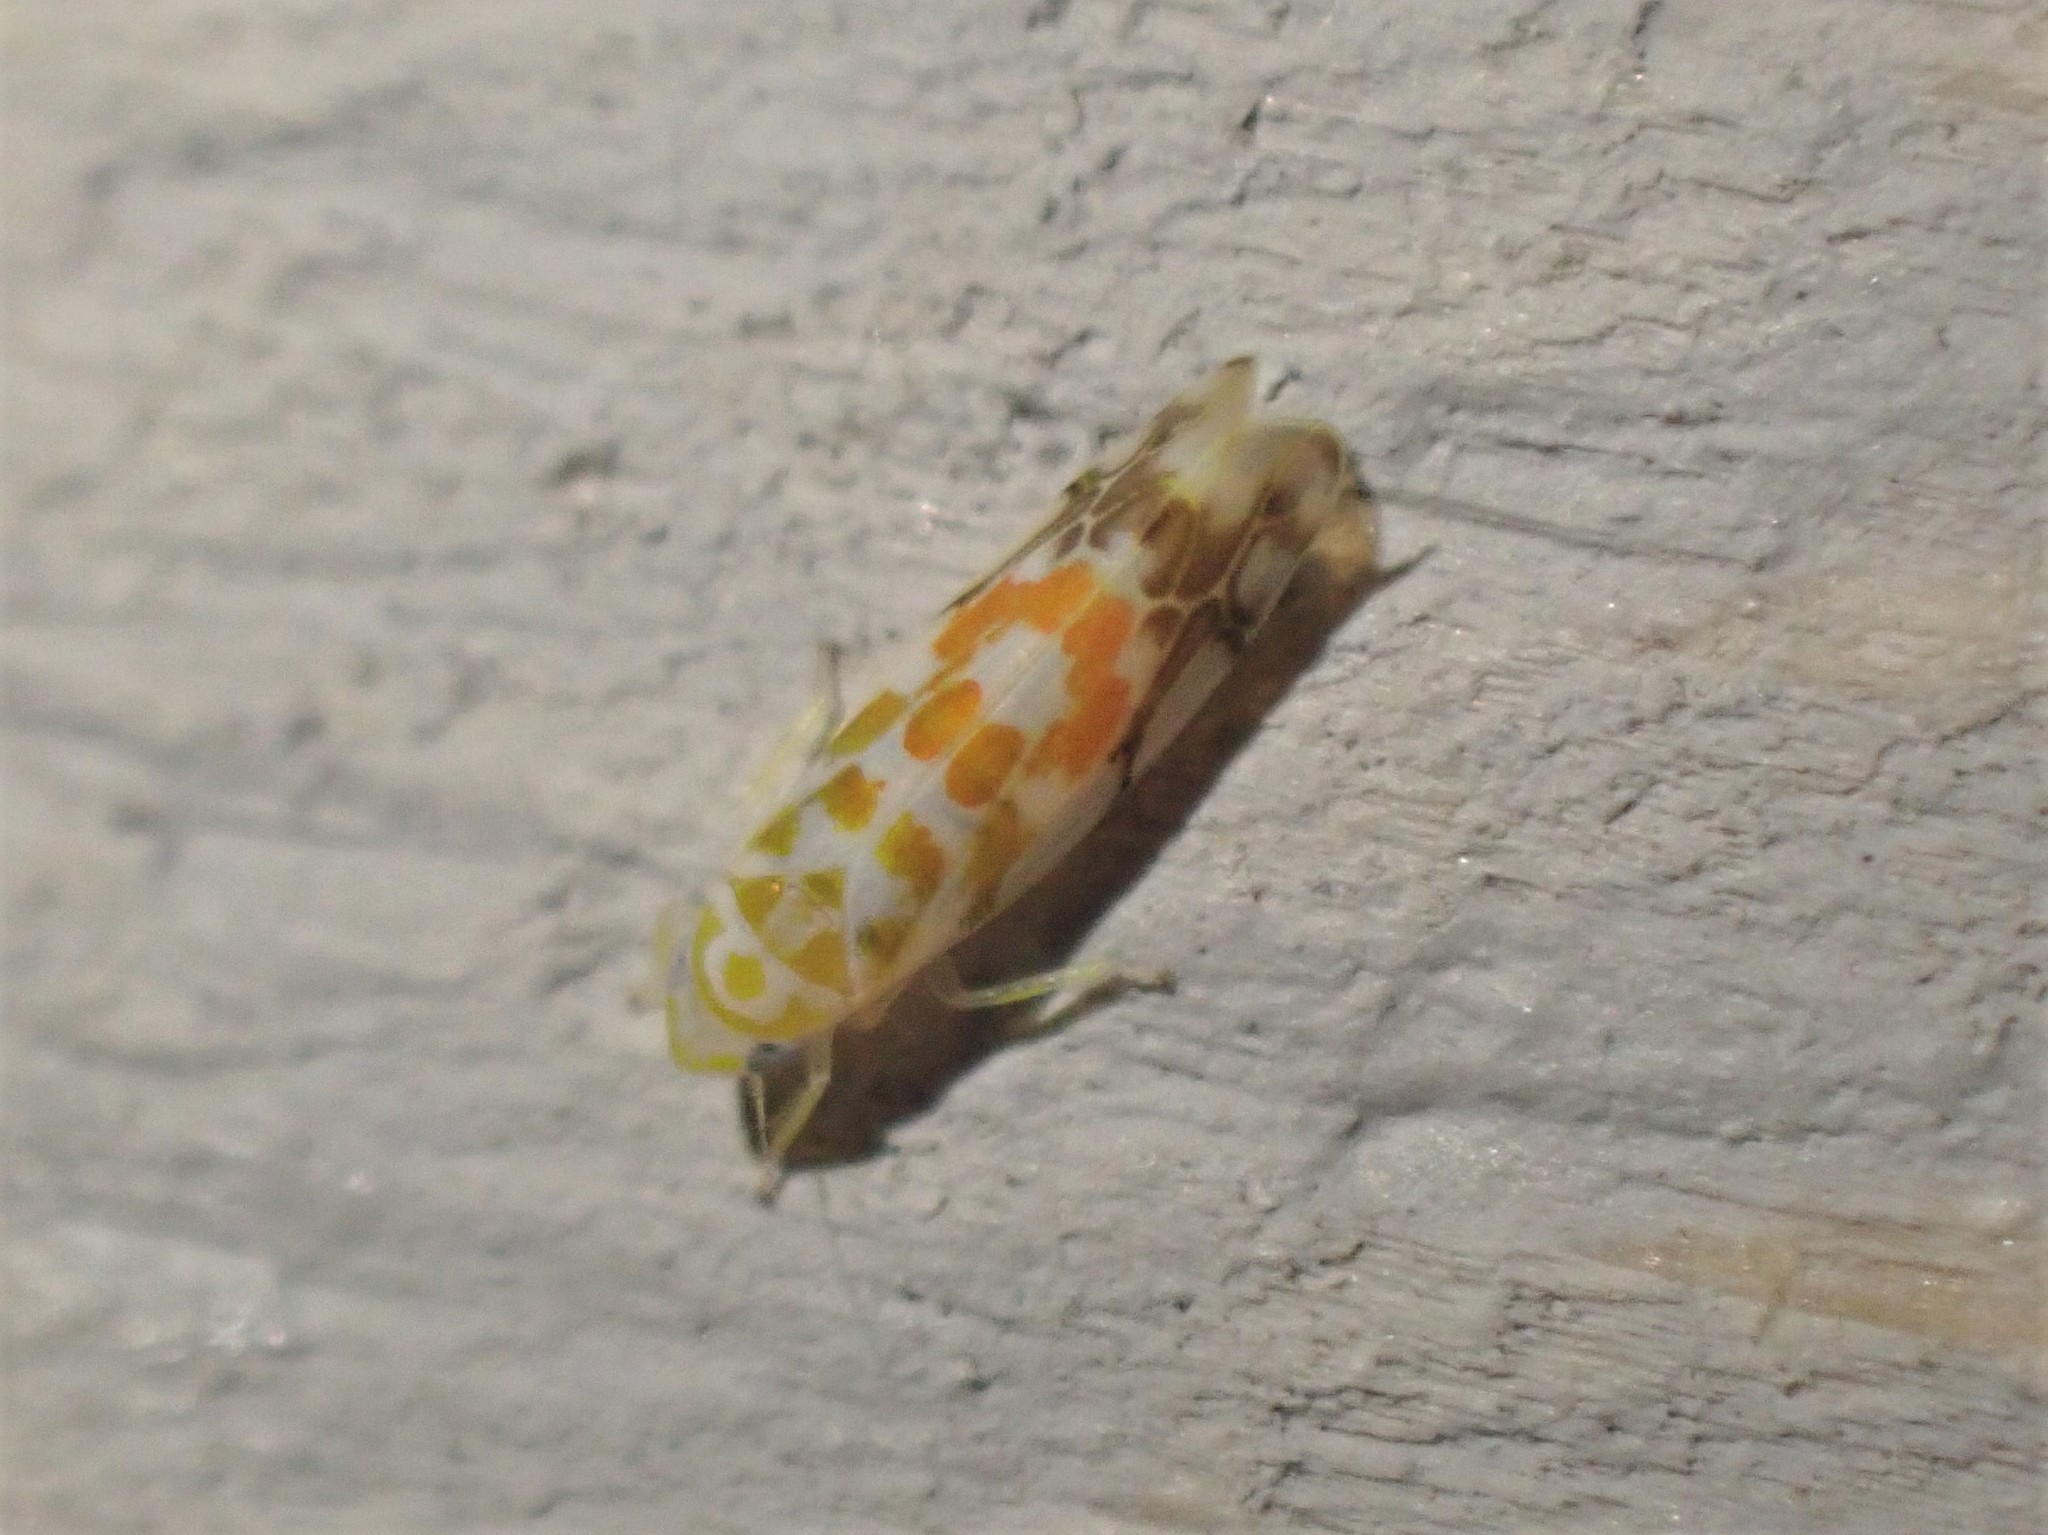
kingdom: Animalia
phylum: Arthropoda
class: Insecta
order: Hemiptera
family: Cicadellidae
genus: Typhlocyba
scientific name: Typhlocyba quercus
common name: Leafhopper
